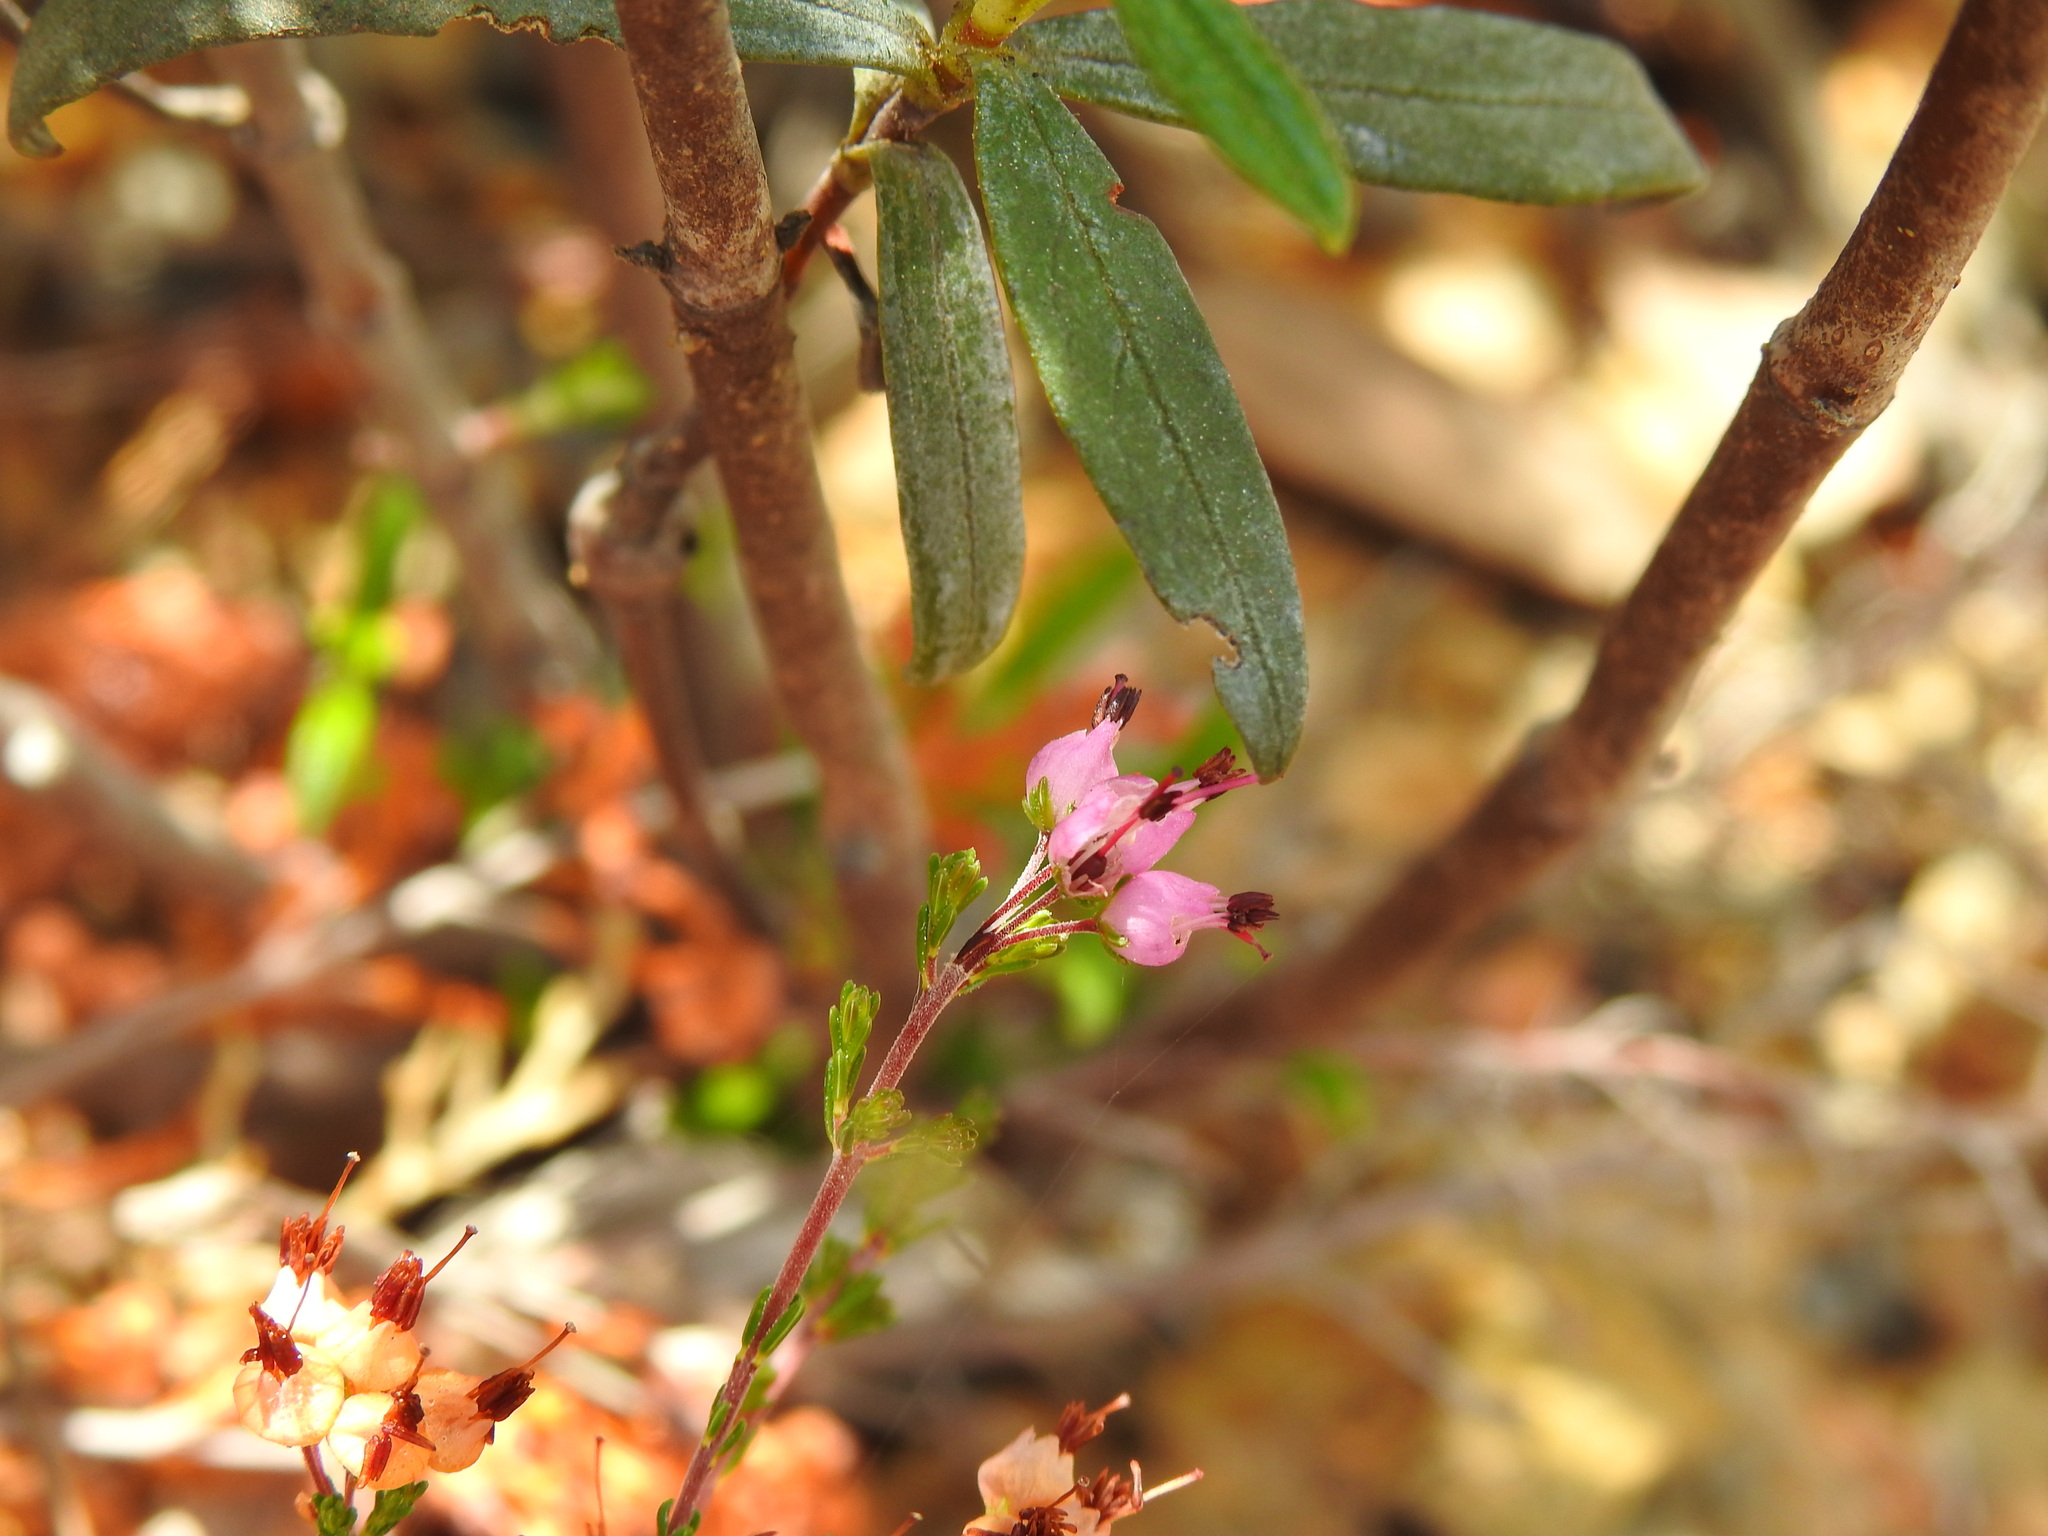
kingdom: Plantae
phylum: Tracheophyta
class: Magnoliopsida
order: Ericales
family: Ericaceae
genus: Erica
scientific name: Erica umbellata
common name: Dwarf spanish heath
